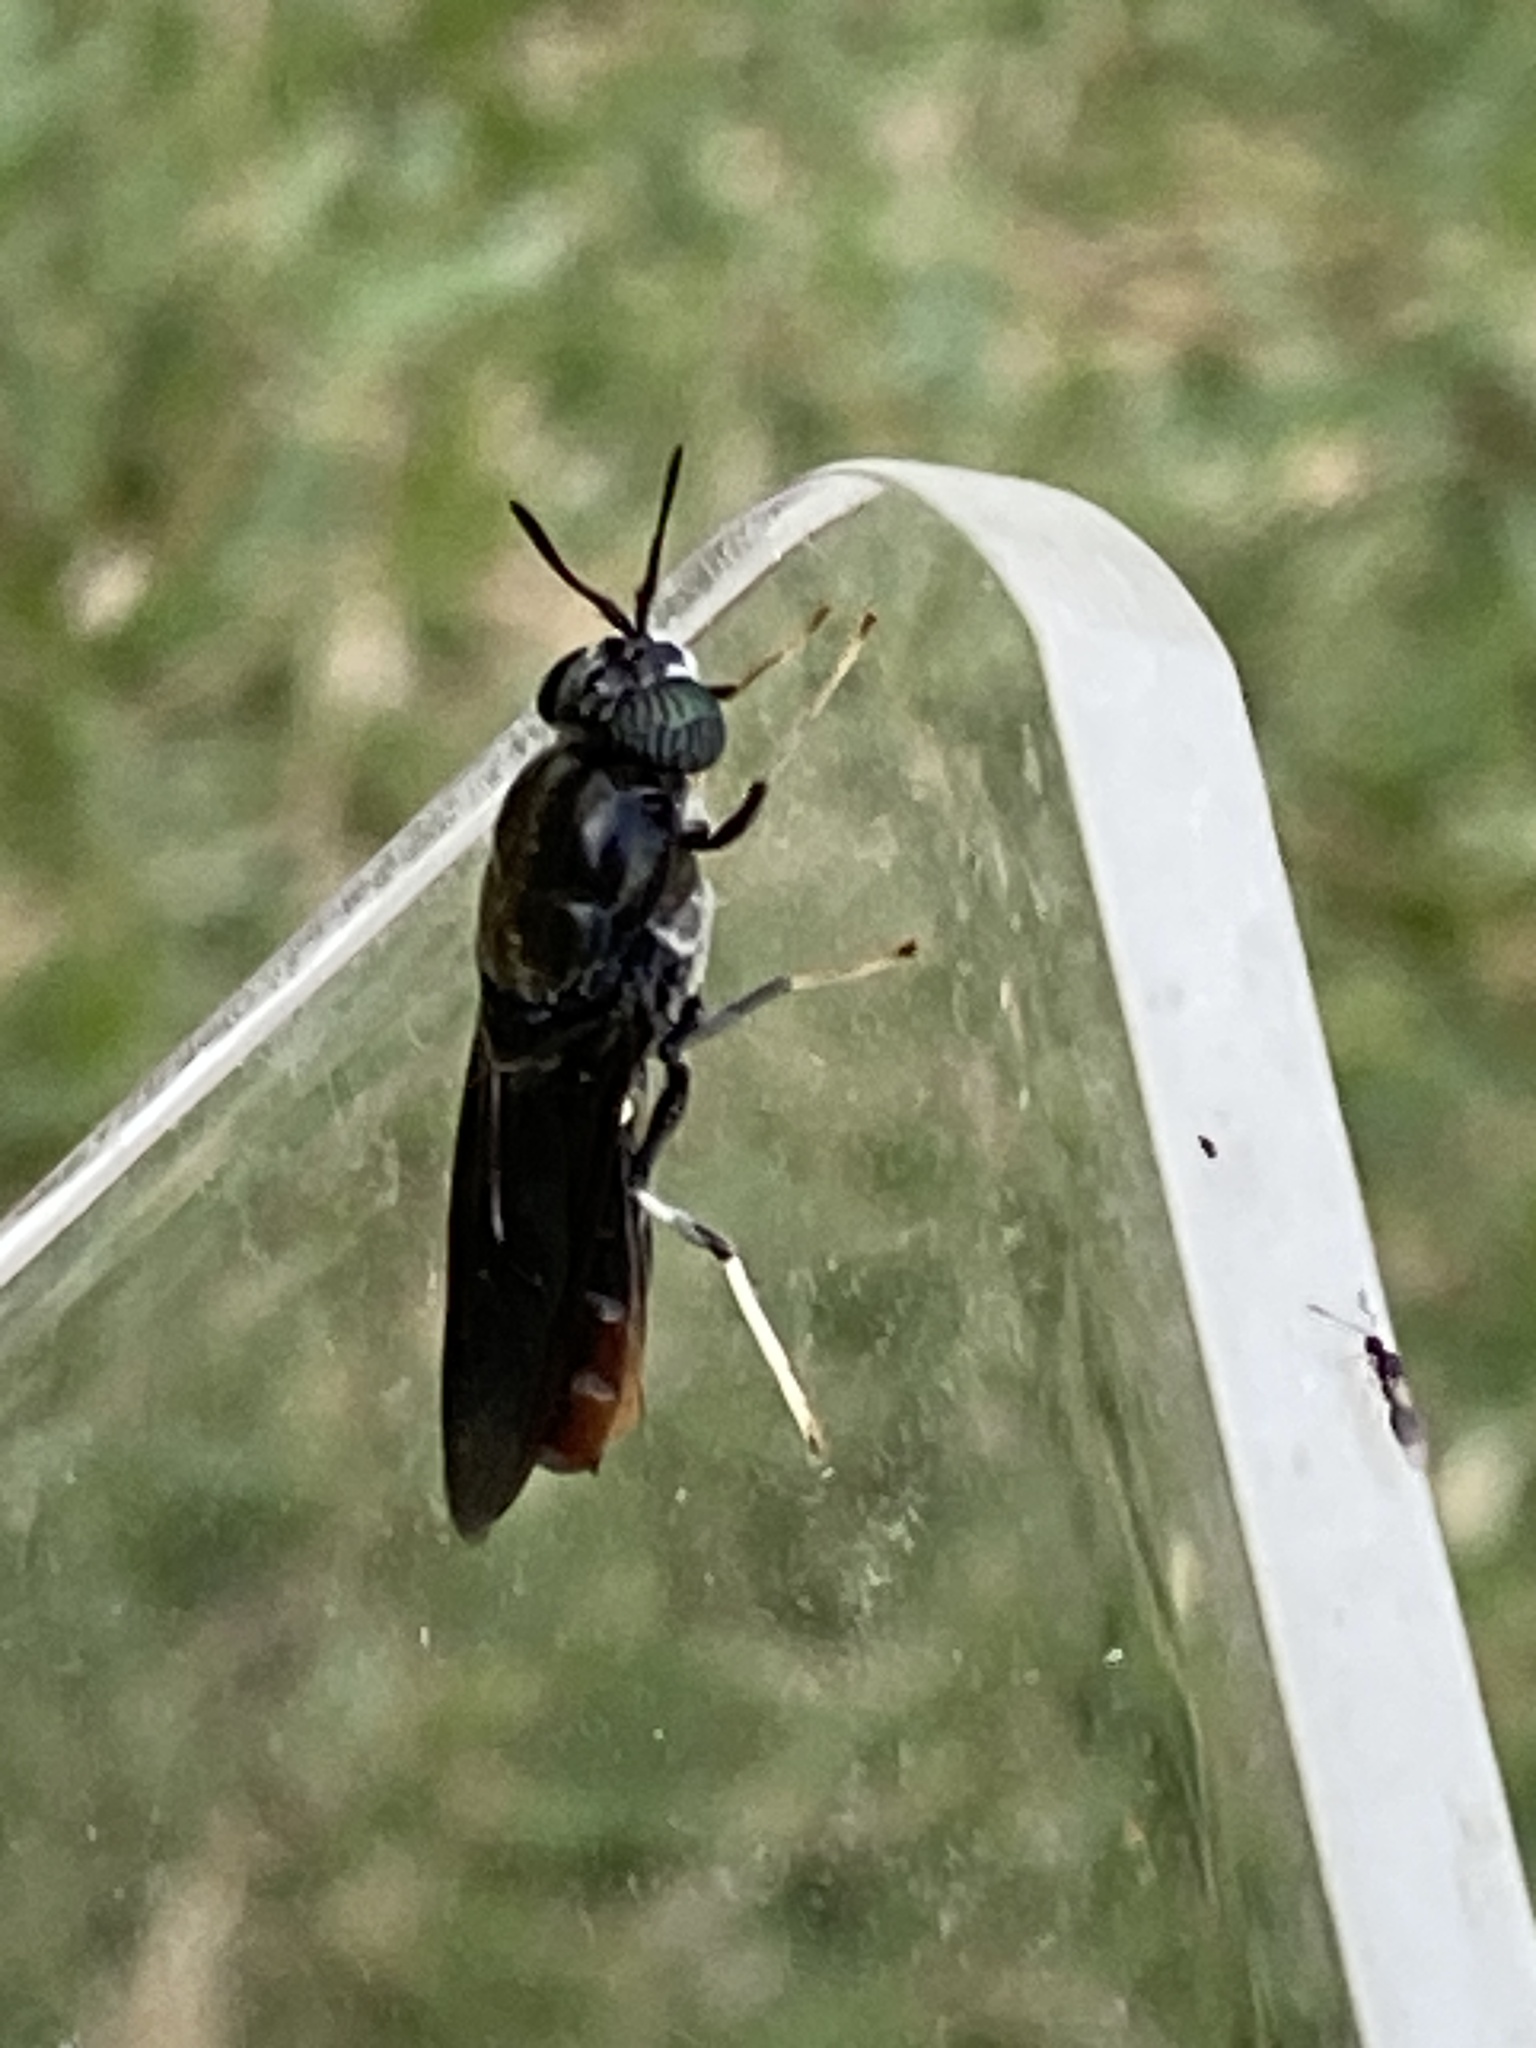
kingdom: Animalia
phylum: Arthropoda
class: Insecta
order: Diptera
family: Stratiomyidae
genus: Hermetia
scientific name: Hermetia illucens
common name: Black soldier fly
